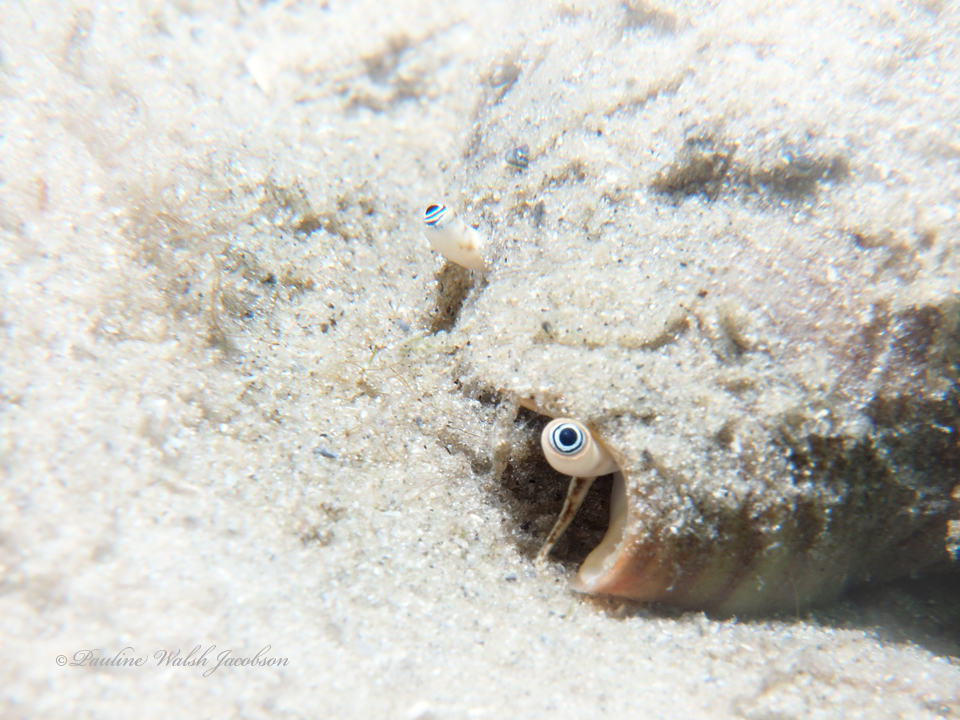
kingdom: Animalia
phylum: Mollusca
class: Gastropoda
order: Littorinimorpha
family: Strombidae
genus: Strombus
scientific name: Strombus alatus
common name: Florida fighting conch
